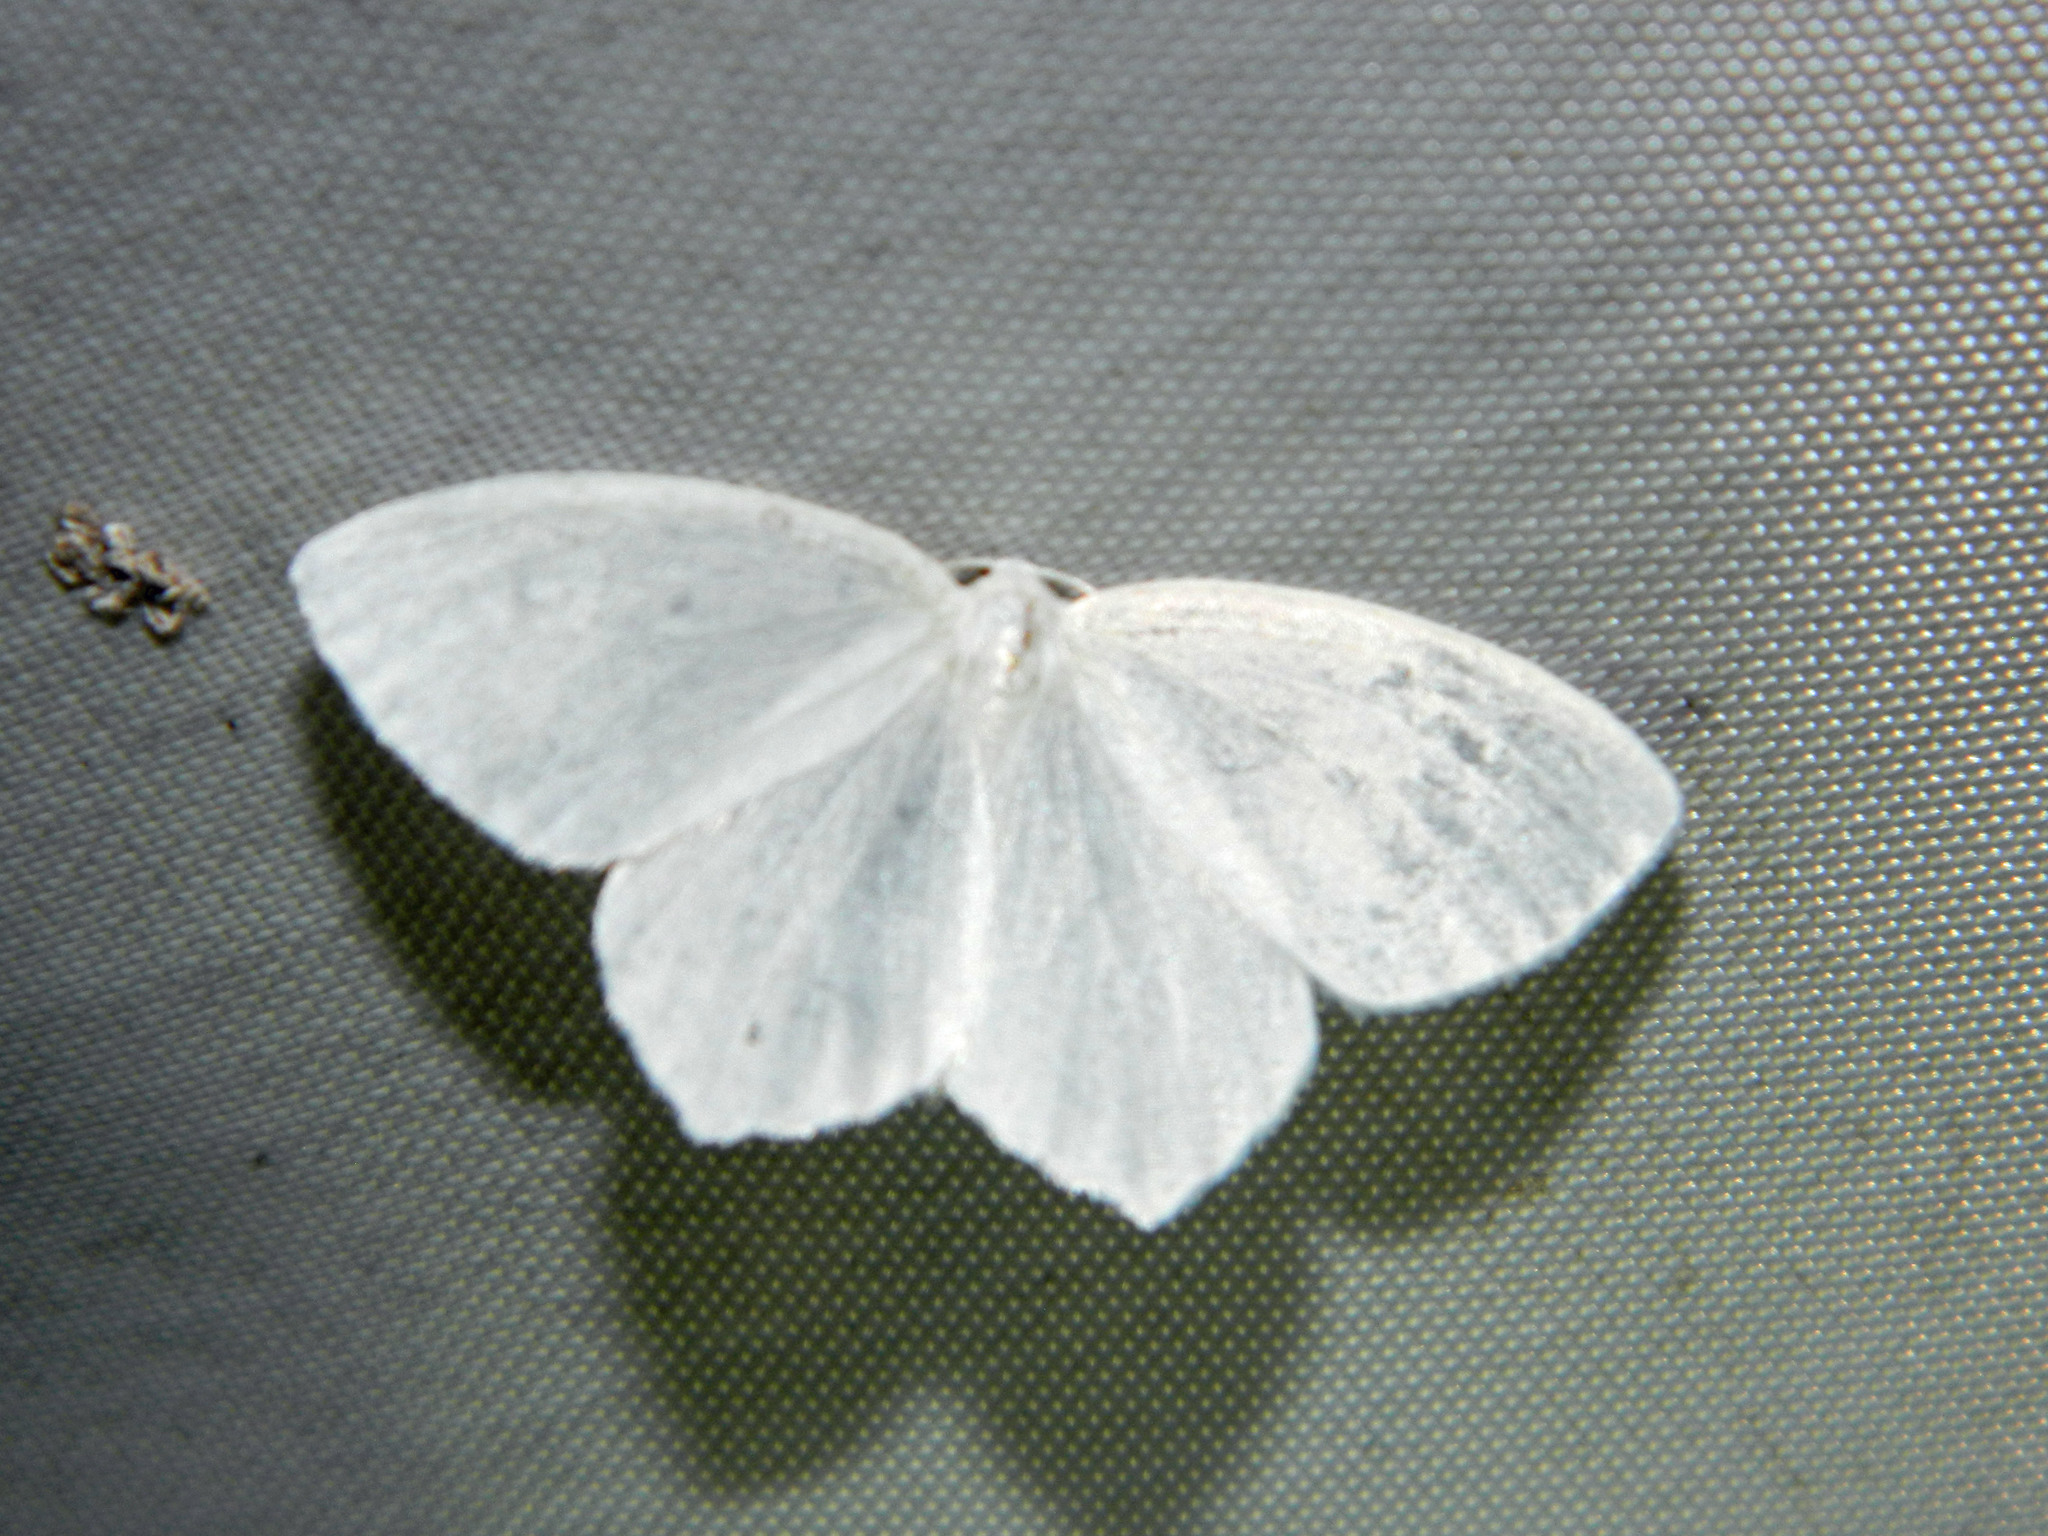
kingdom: Animalia
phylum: Arthropoda
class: Insecta
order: Lepidoptera
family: Geometridae
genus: Eugonobapta
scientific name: Eugonobapta nivosaria
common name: Snowy geometer
